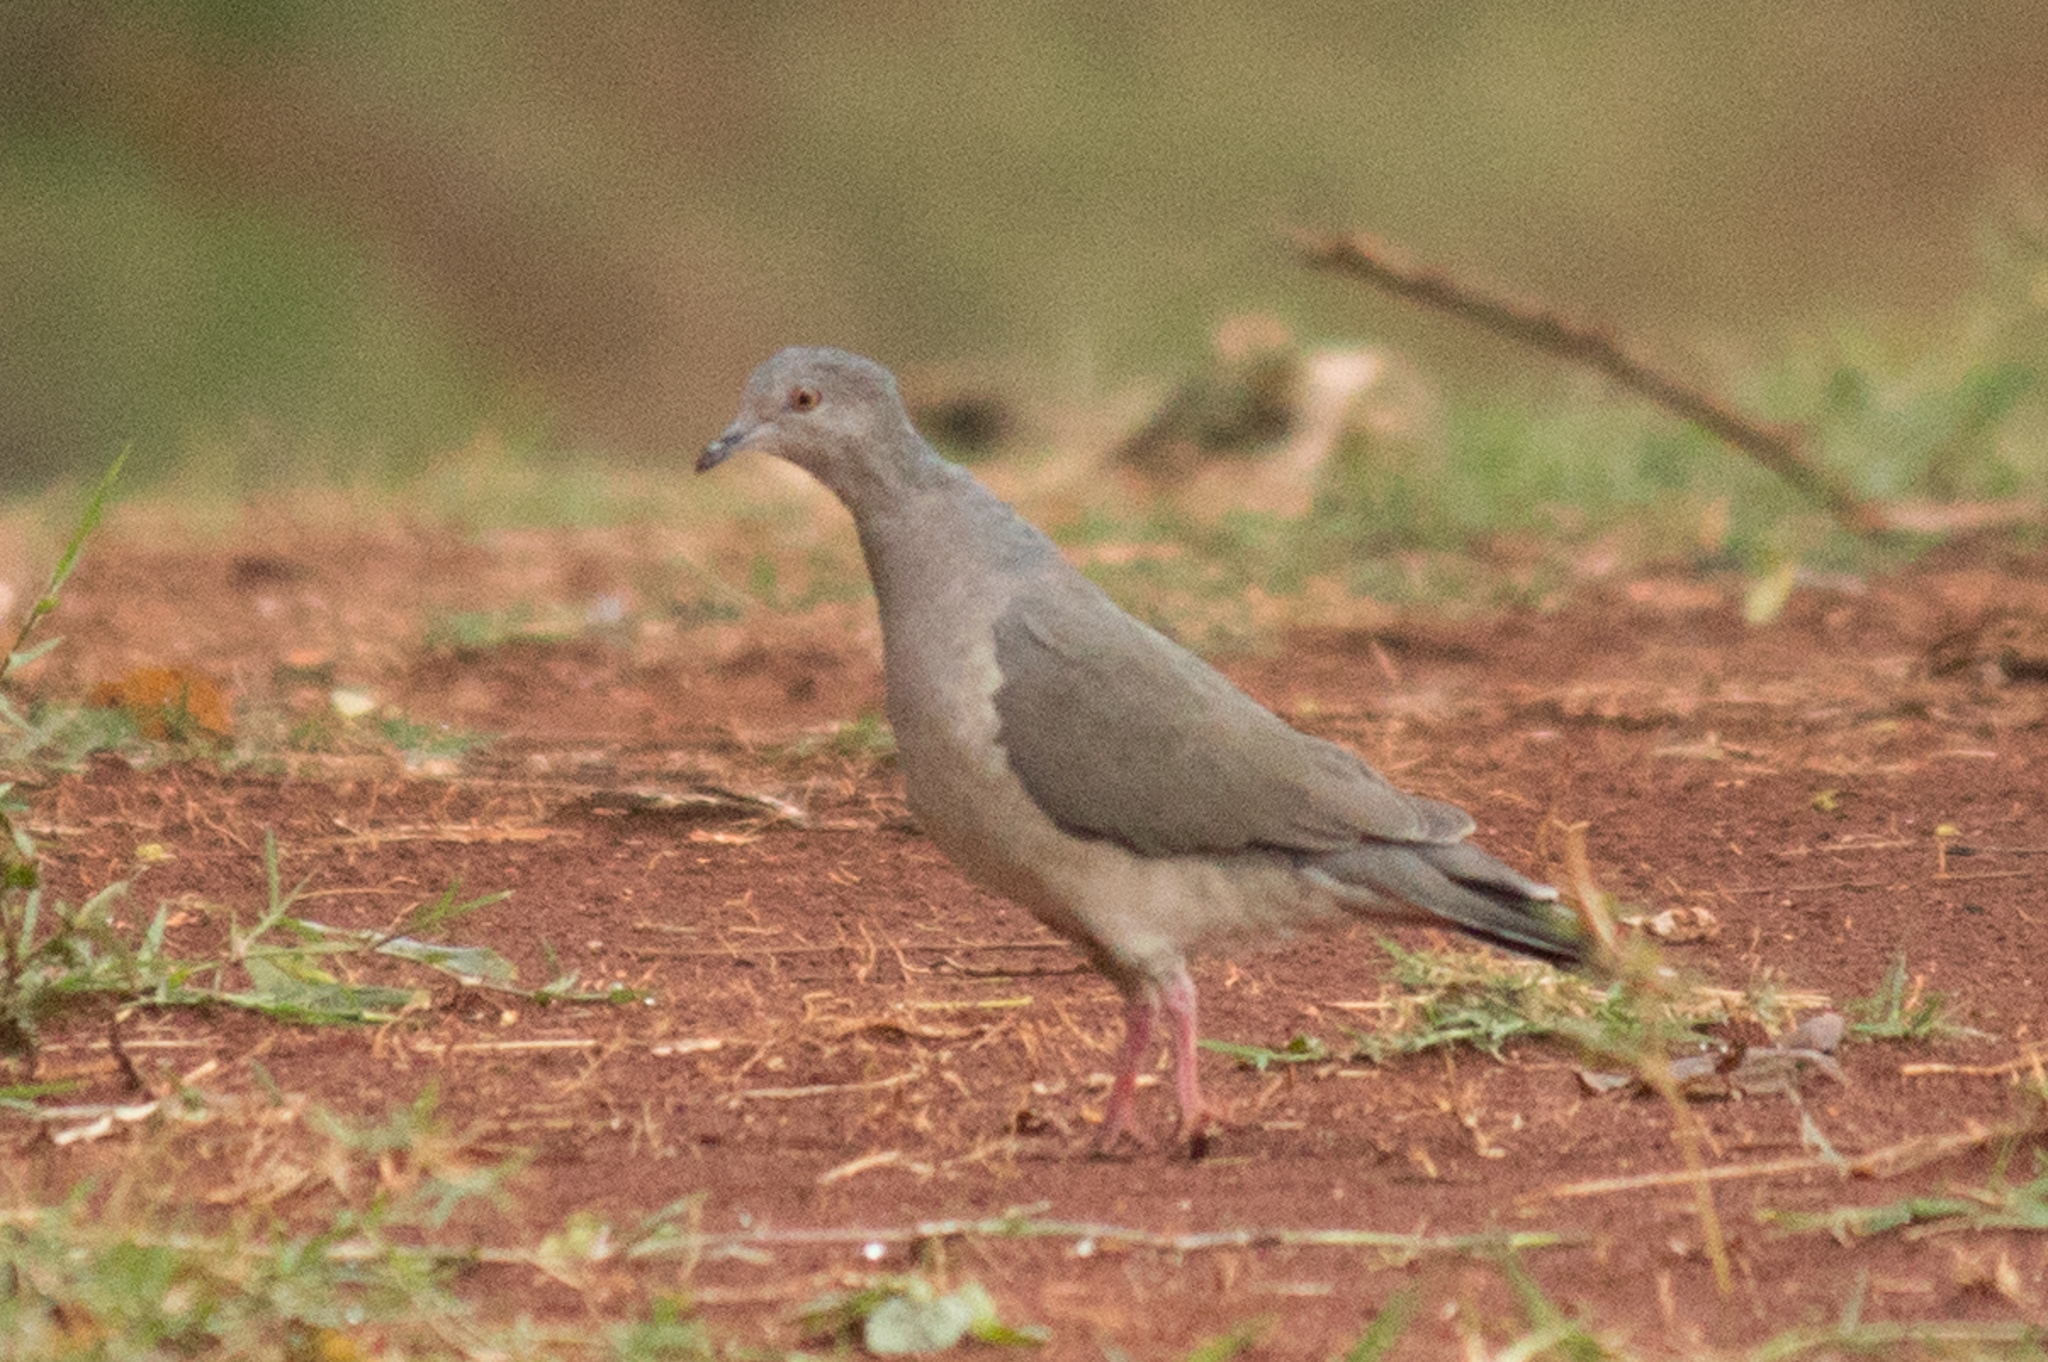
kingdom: Animalia
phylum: Chordata
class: Aves
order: Columbiformes
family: Columbidae
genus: Leptotila
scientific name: Leptotila verreauxi
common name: White-tipped dove
